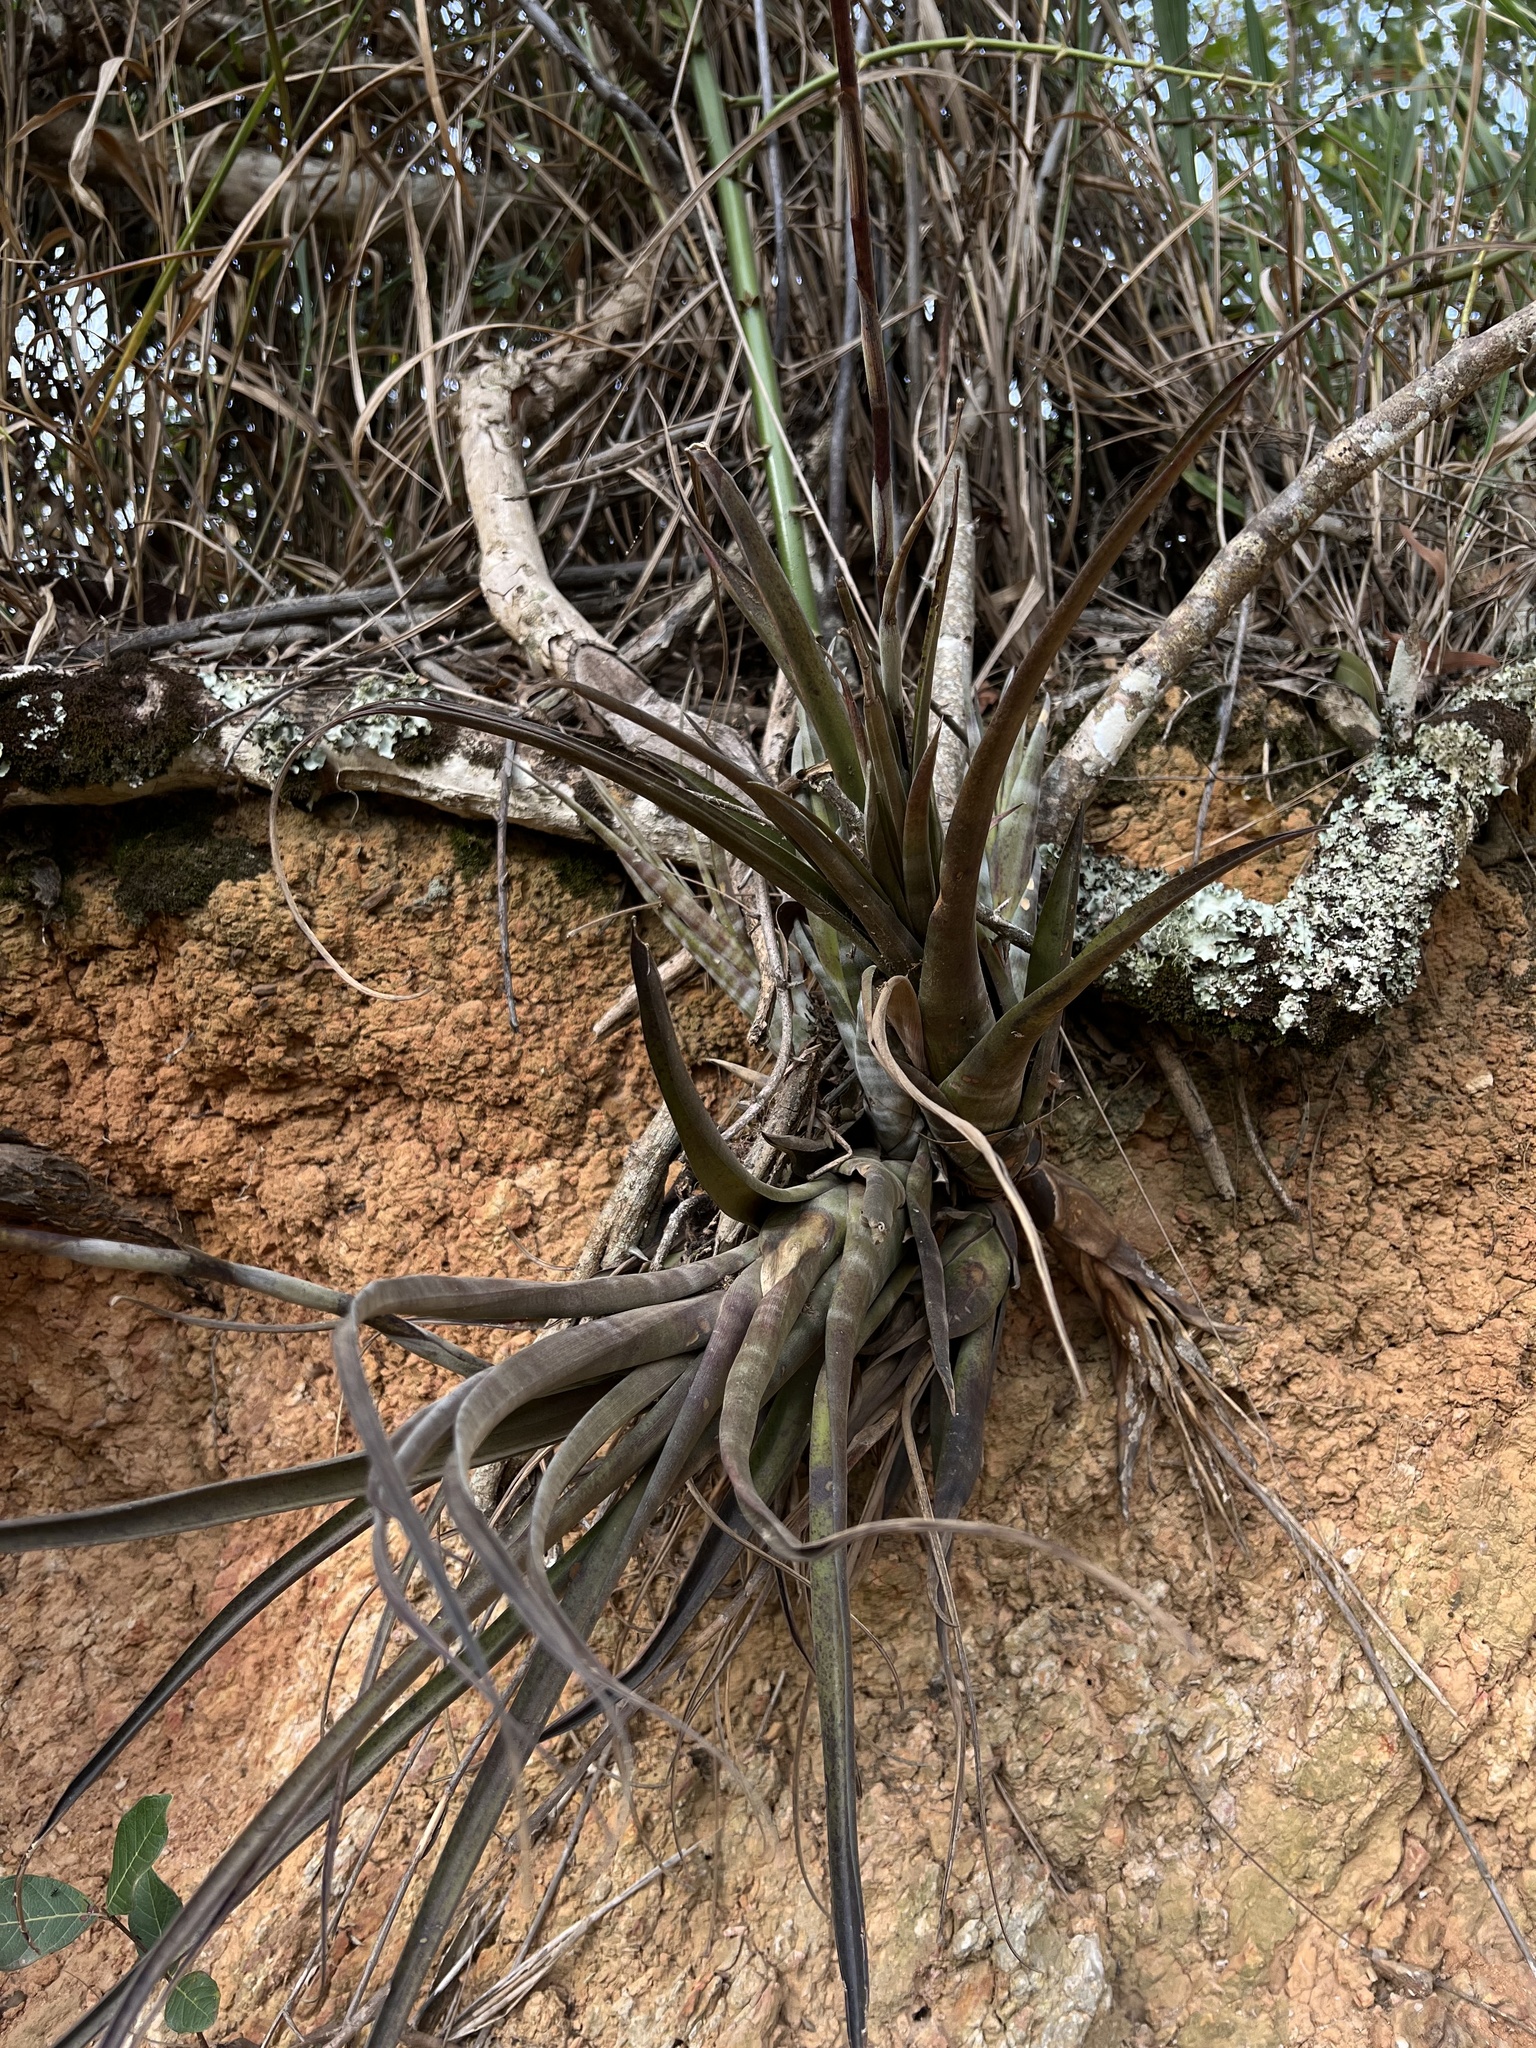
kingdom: Plantae
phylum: Tracheophyta
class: Liliopsida
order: Poales
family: Bromeliaceae
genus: Tillandsia
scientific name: Tillandsia flexuosa
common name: Banded airplant
